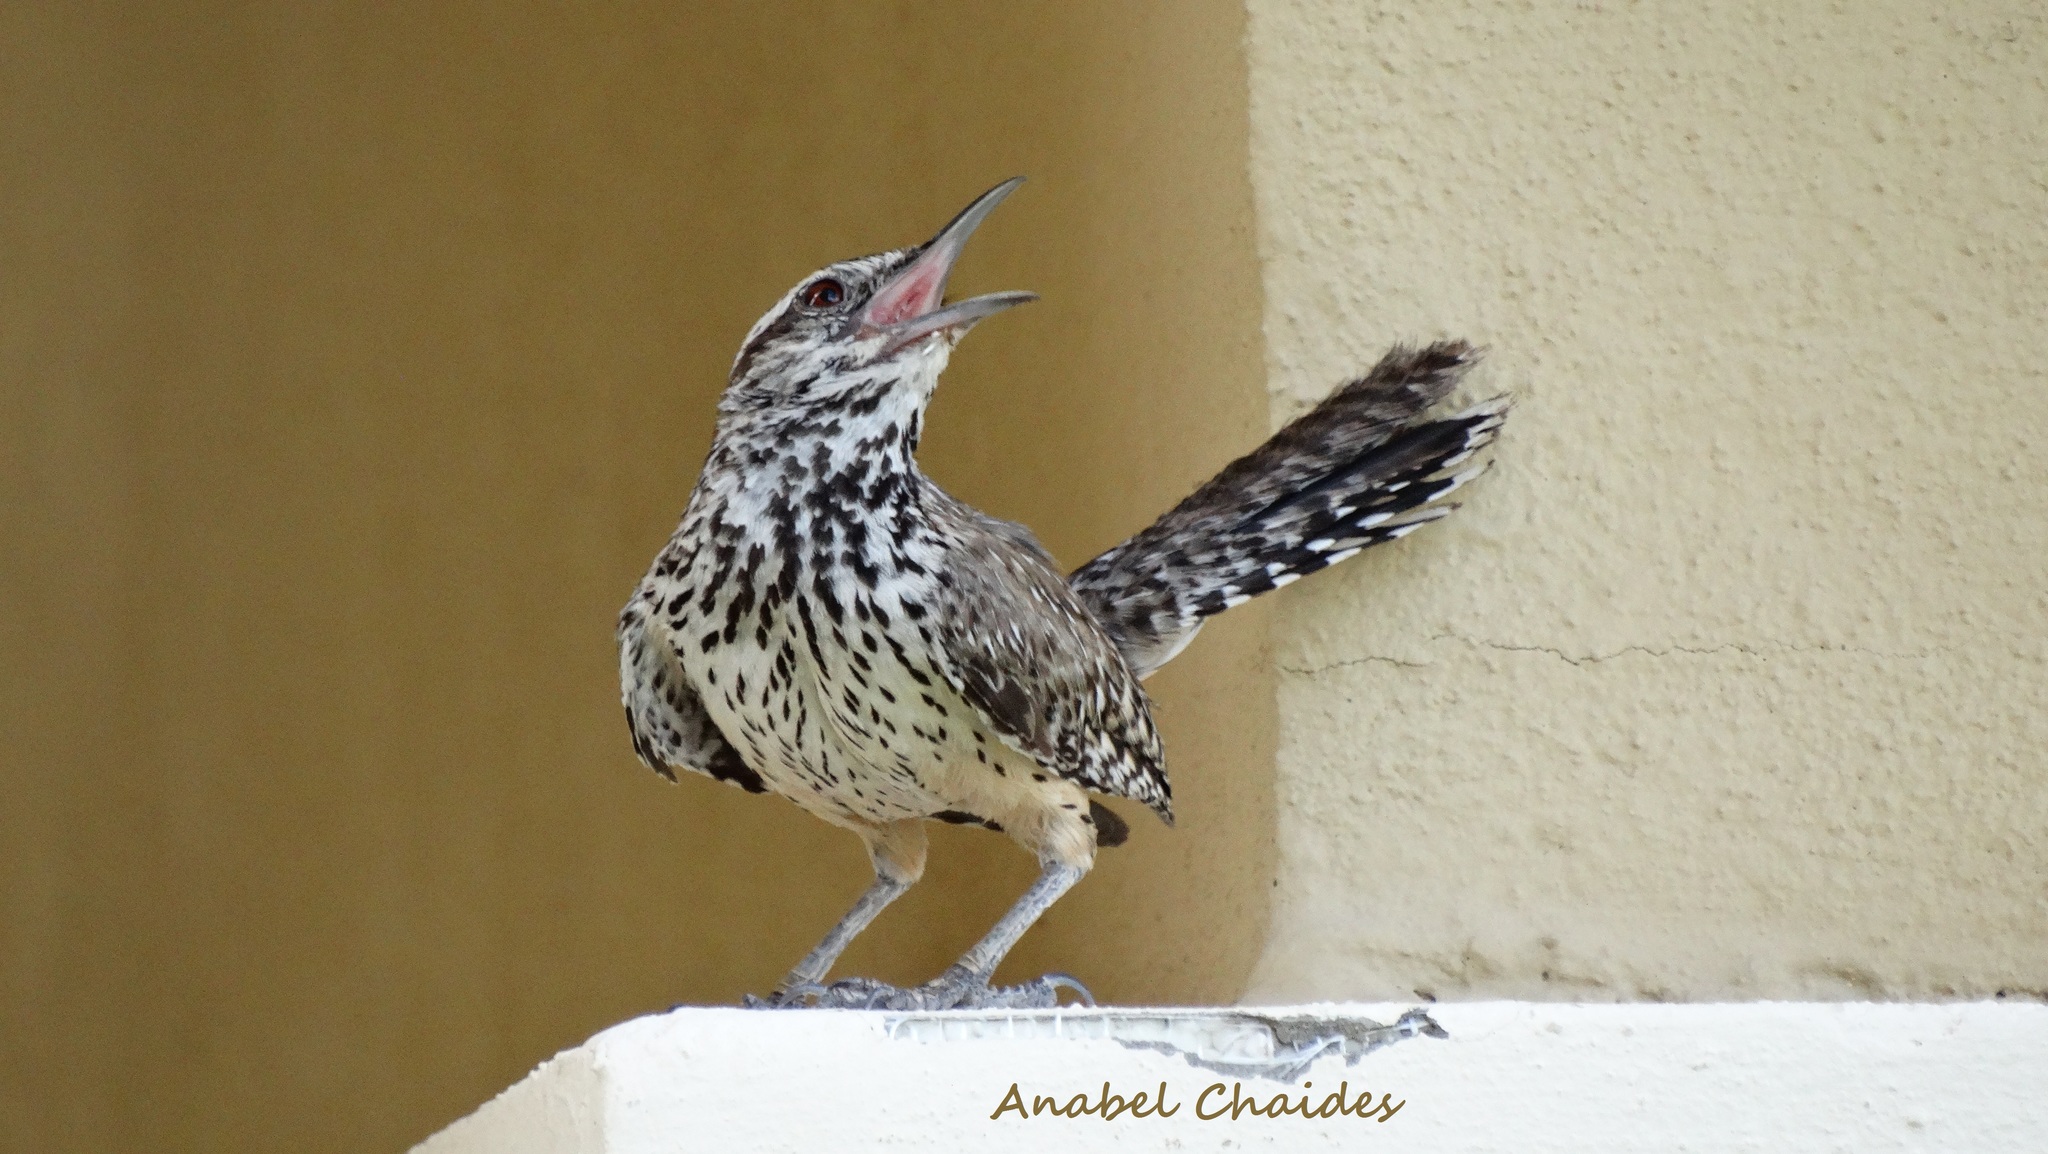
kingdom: Animalia
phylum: Chordata
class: Aves
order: Passeriformes
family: Troglodytidae
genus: Campylorhynchus
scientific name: Campylorhynchus brunneicapillus
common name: Cactus wren
